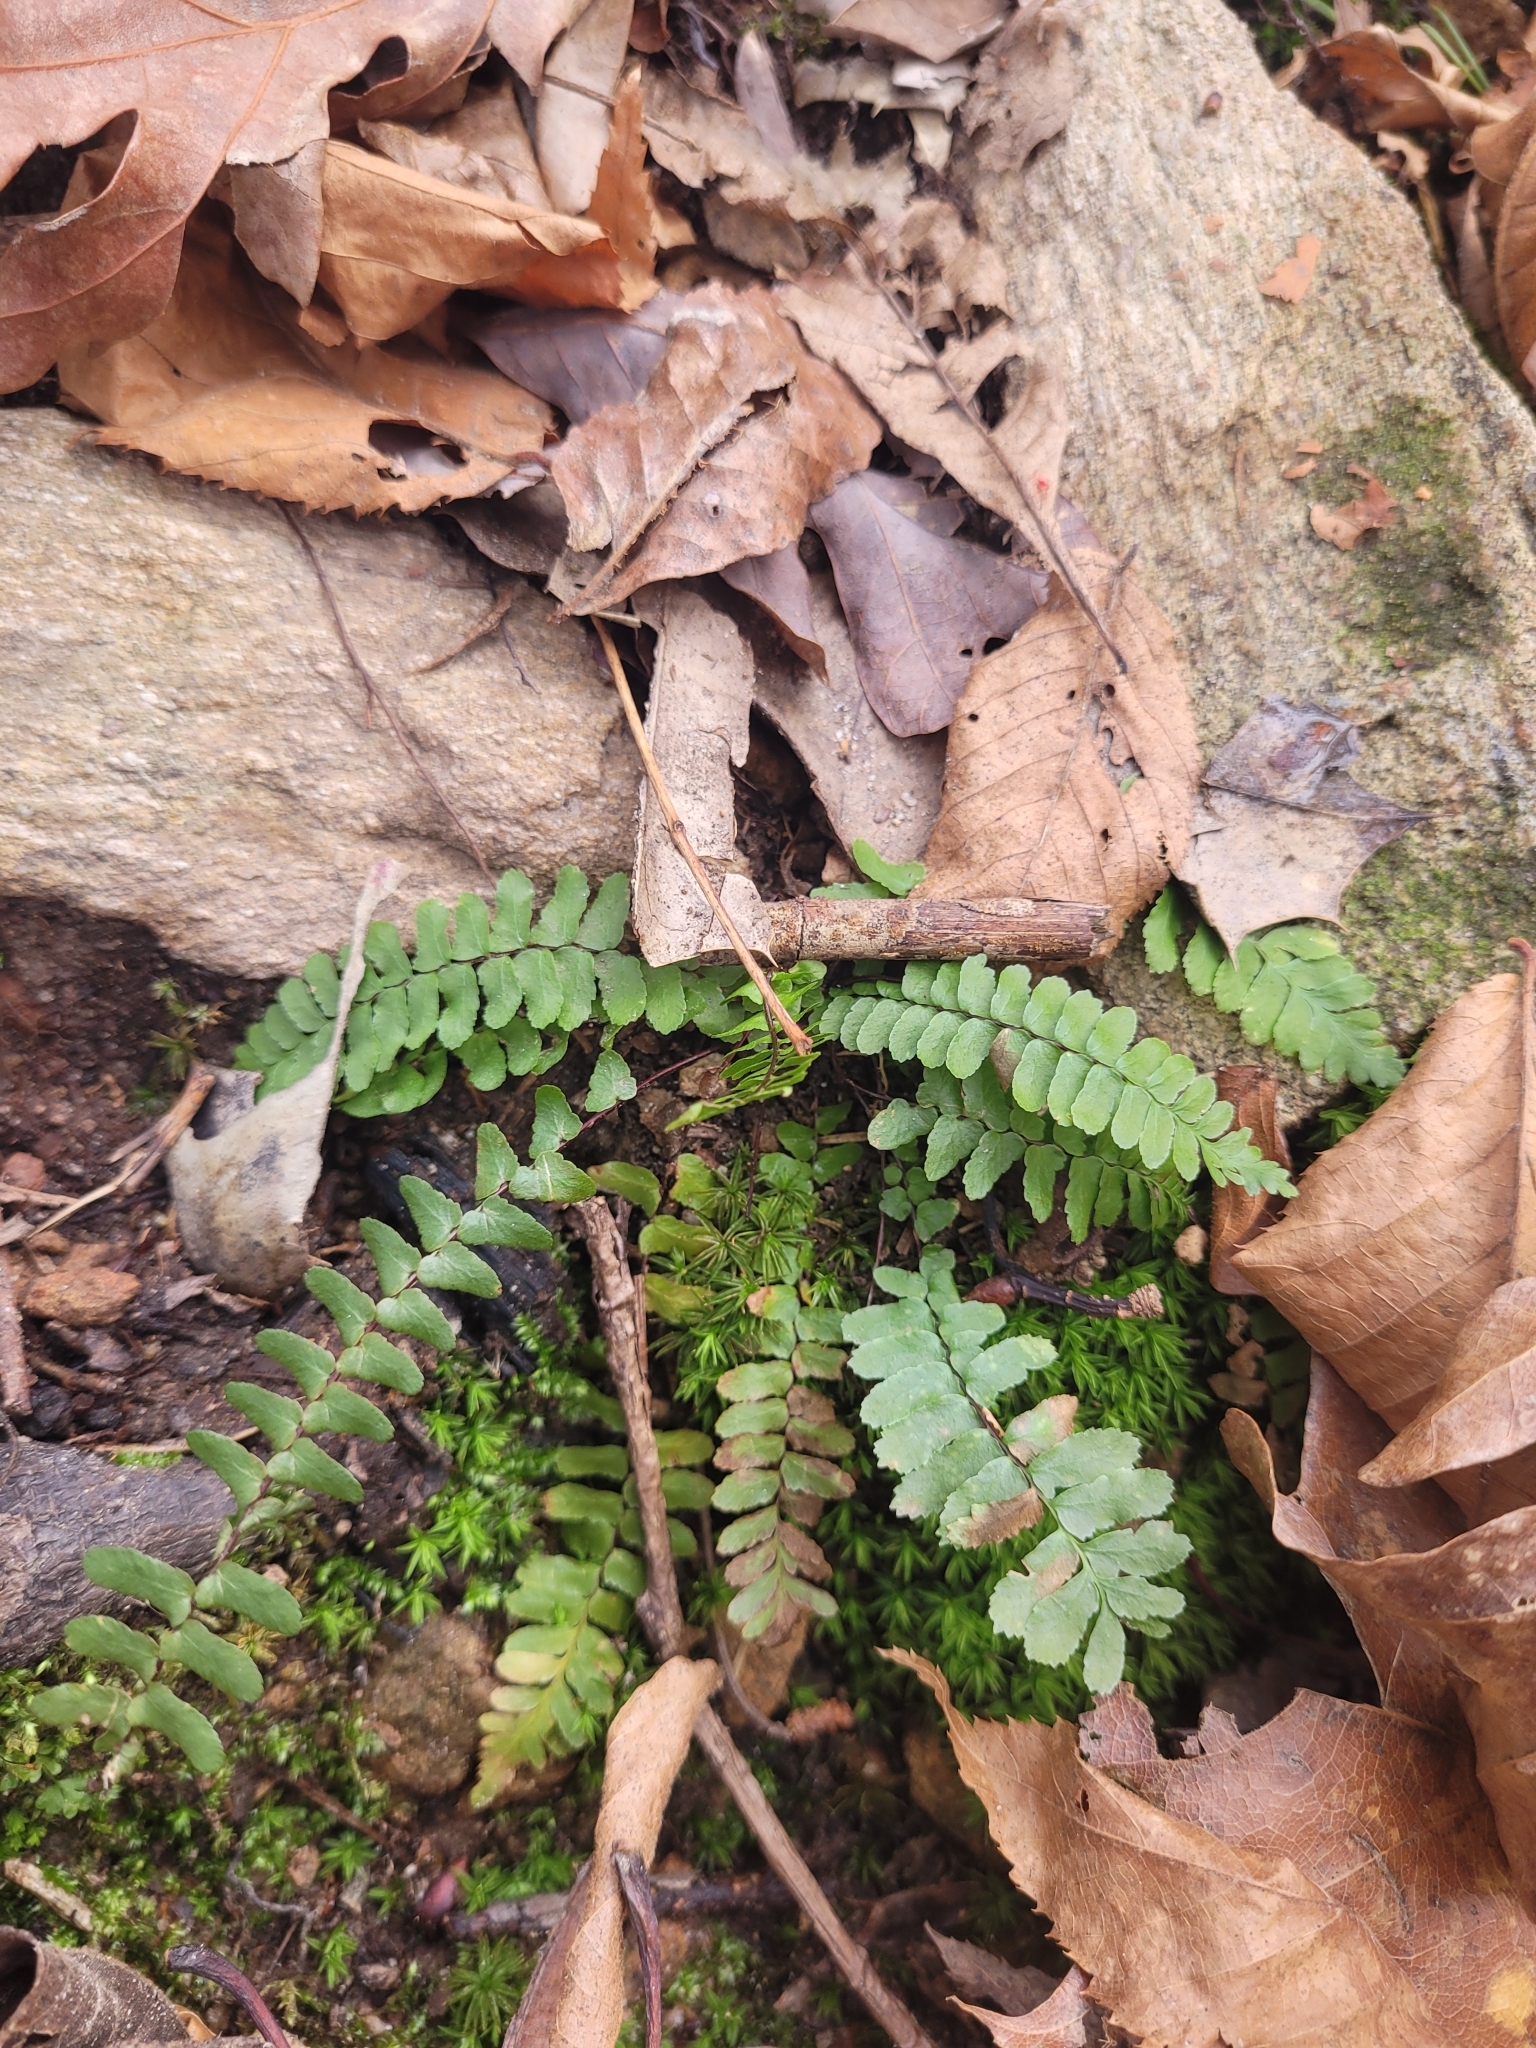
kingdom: Plantae
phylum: Tracheophyta
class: Polypodiopsida
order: Polypodiales
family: Aspleniaceae
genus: Asplenium
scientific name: Asplenium platyneuron
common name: Ebony spleenwort
